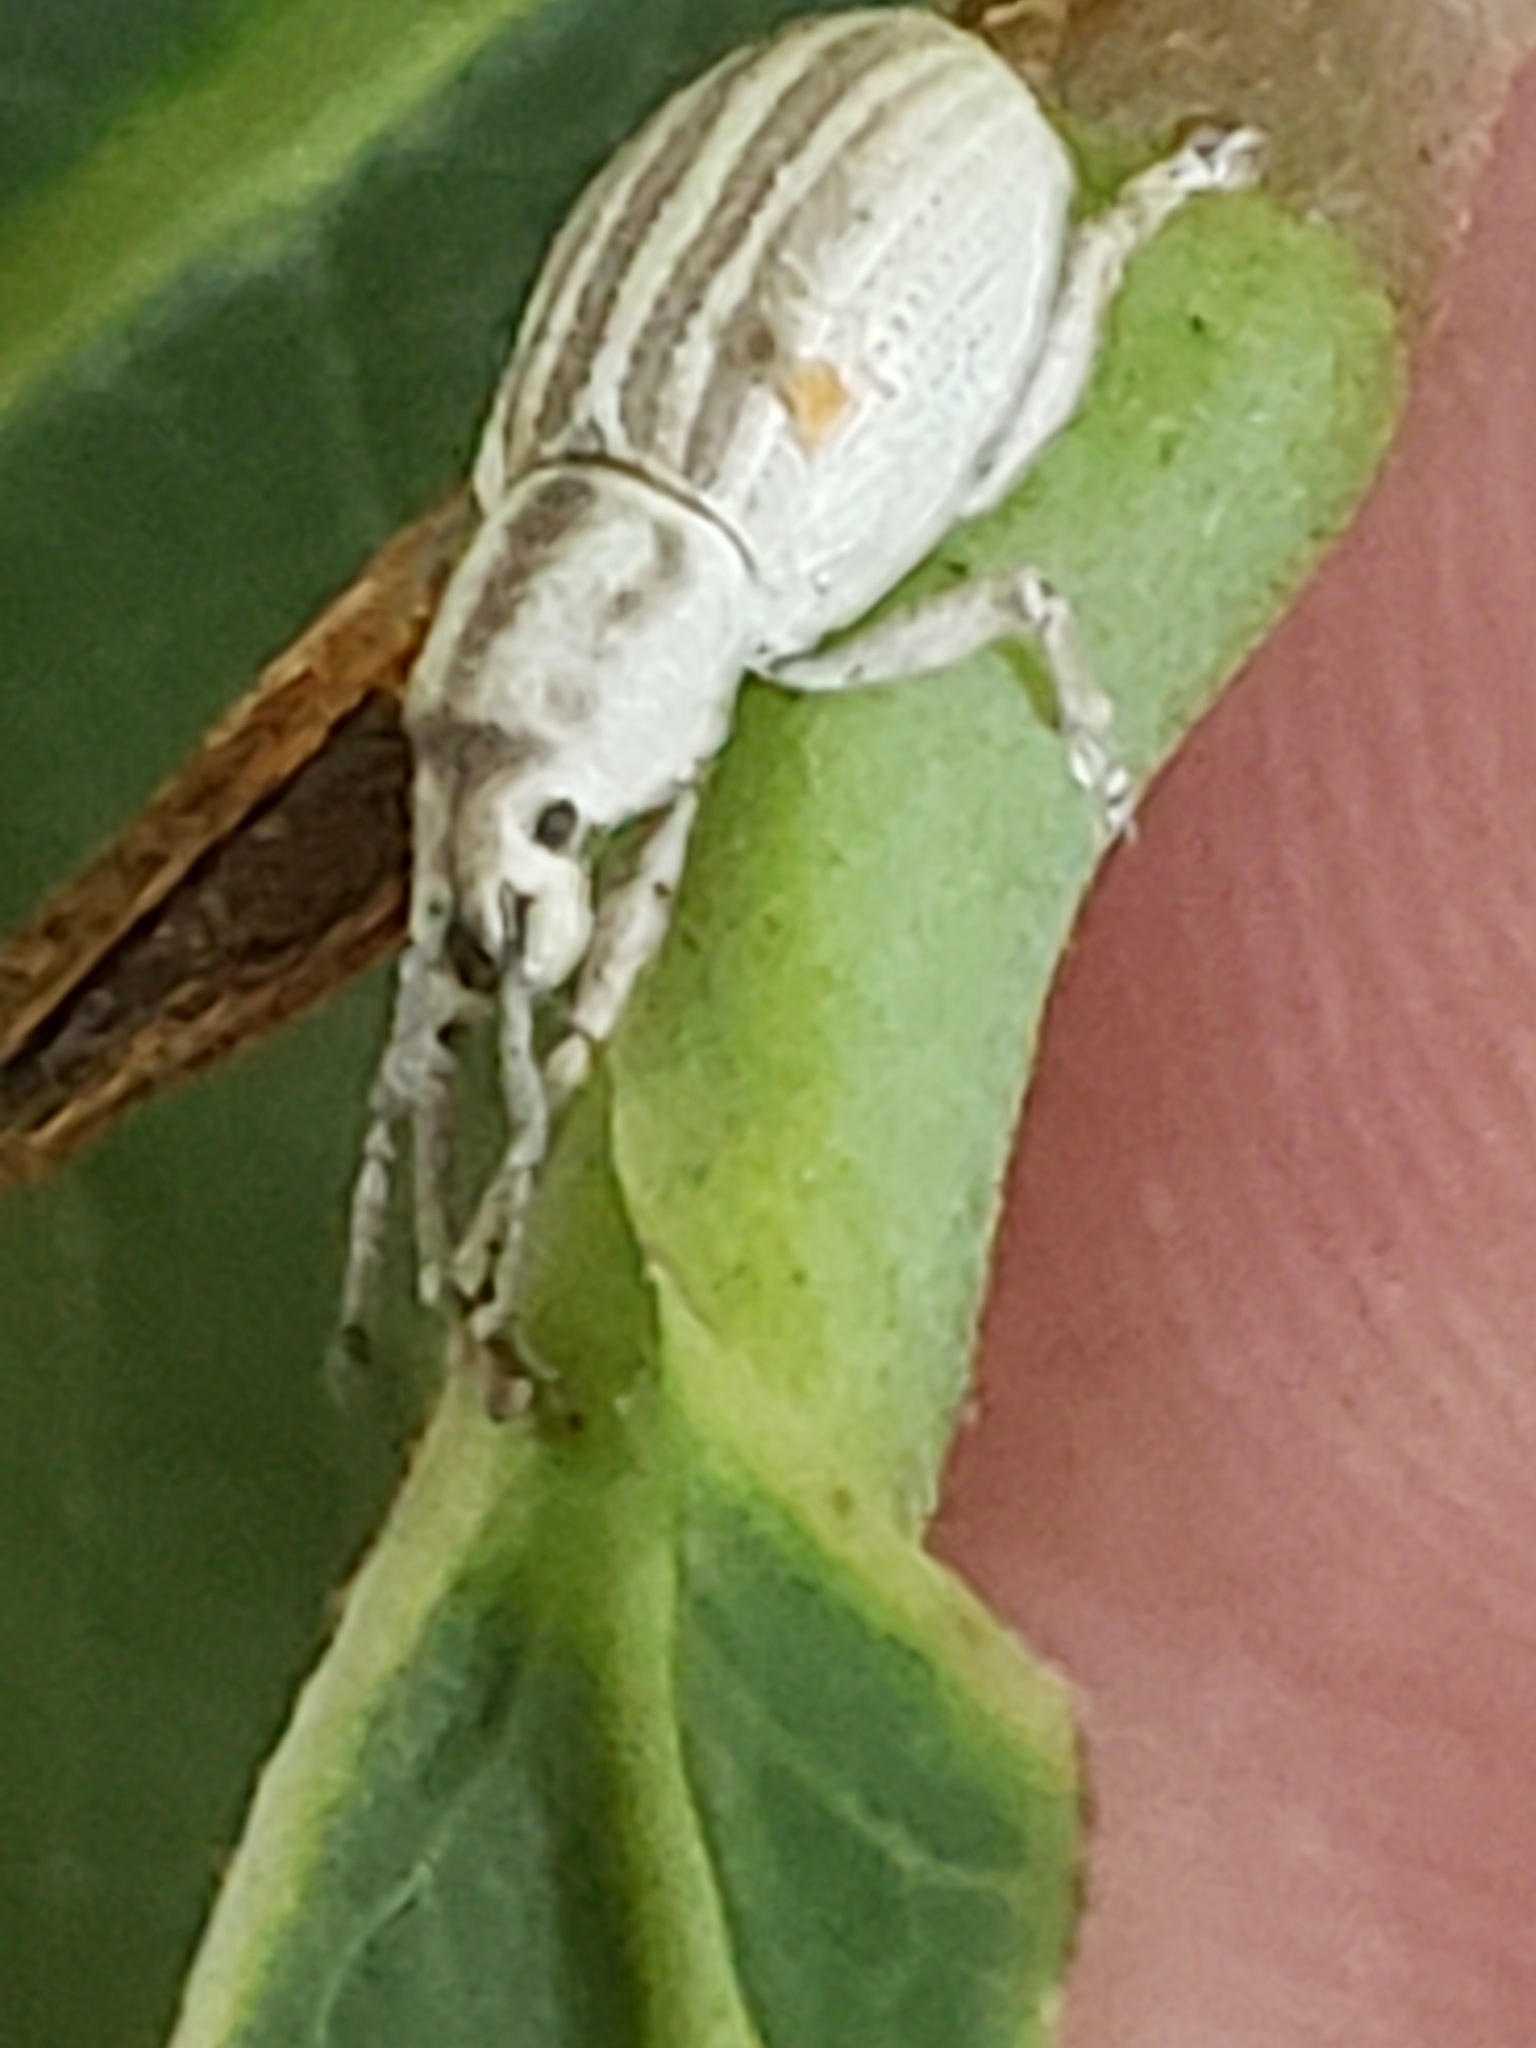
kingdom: Animalia
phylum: Arthropoda
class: Insecta
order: Coleoptera
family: Curculionidae
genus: Aphrastus
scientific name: Aphrastus taeniatus
